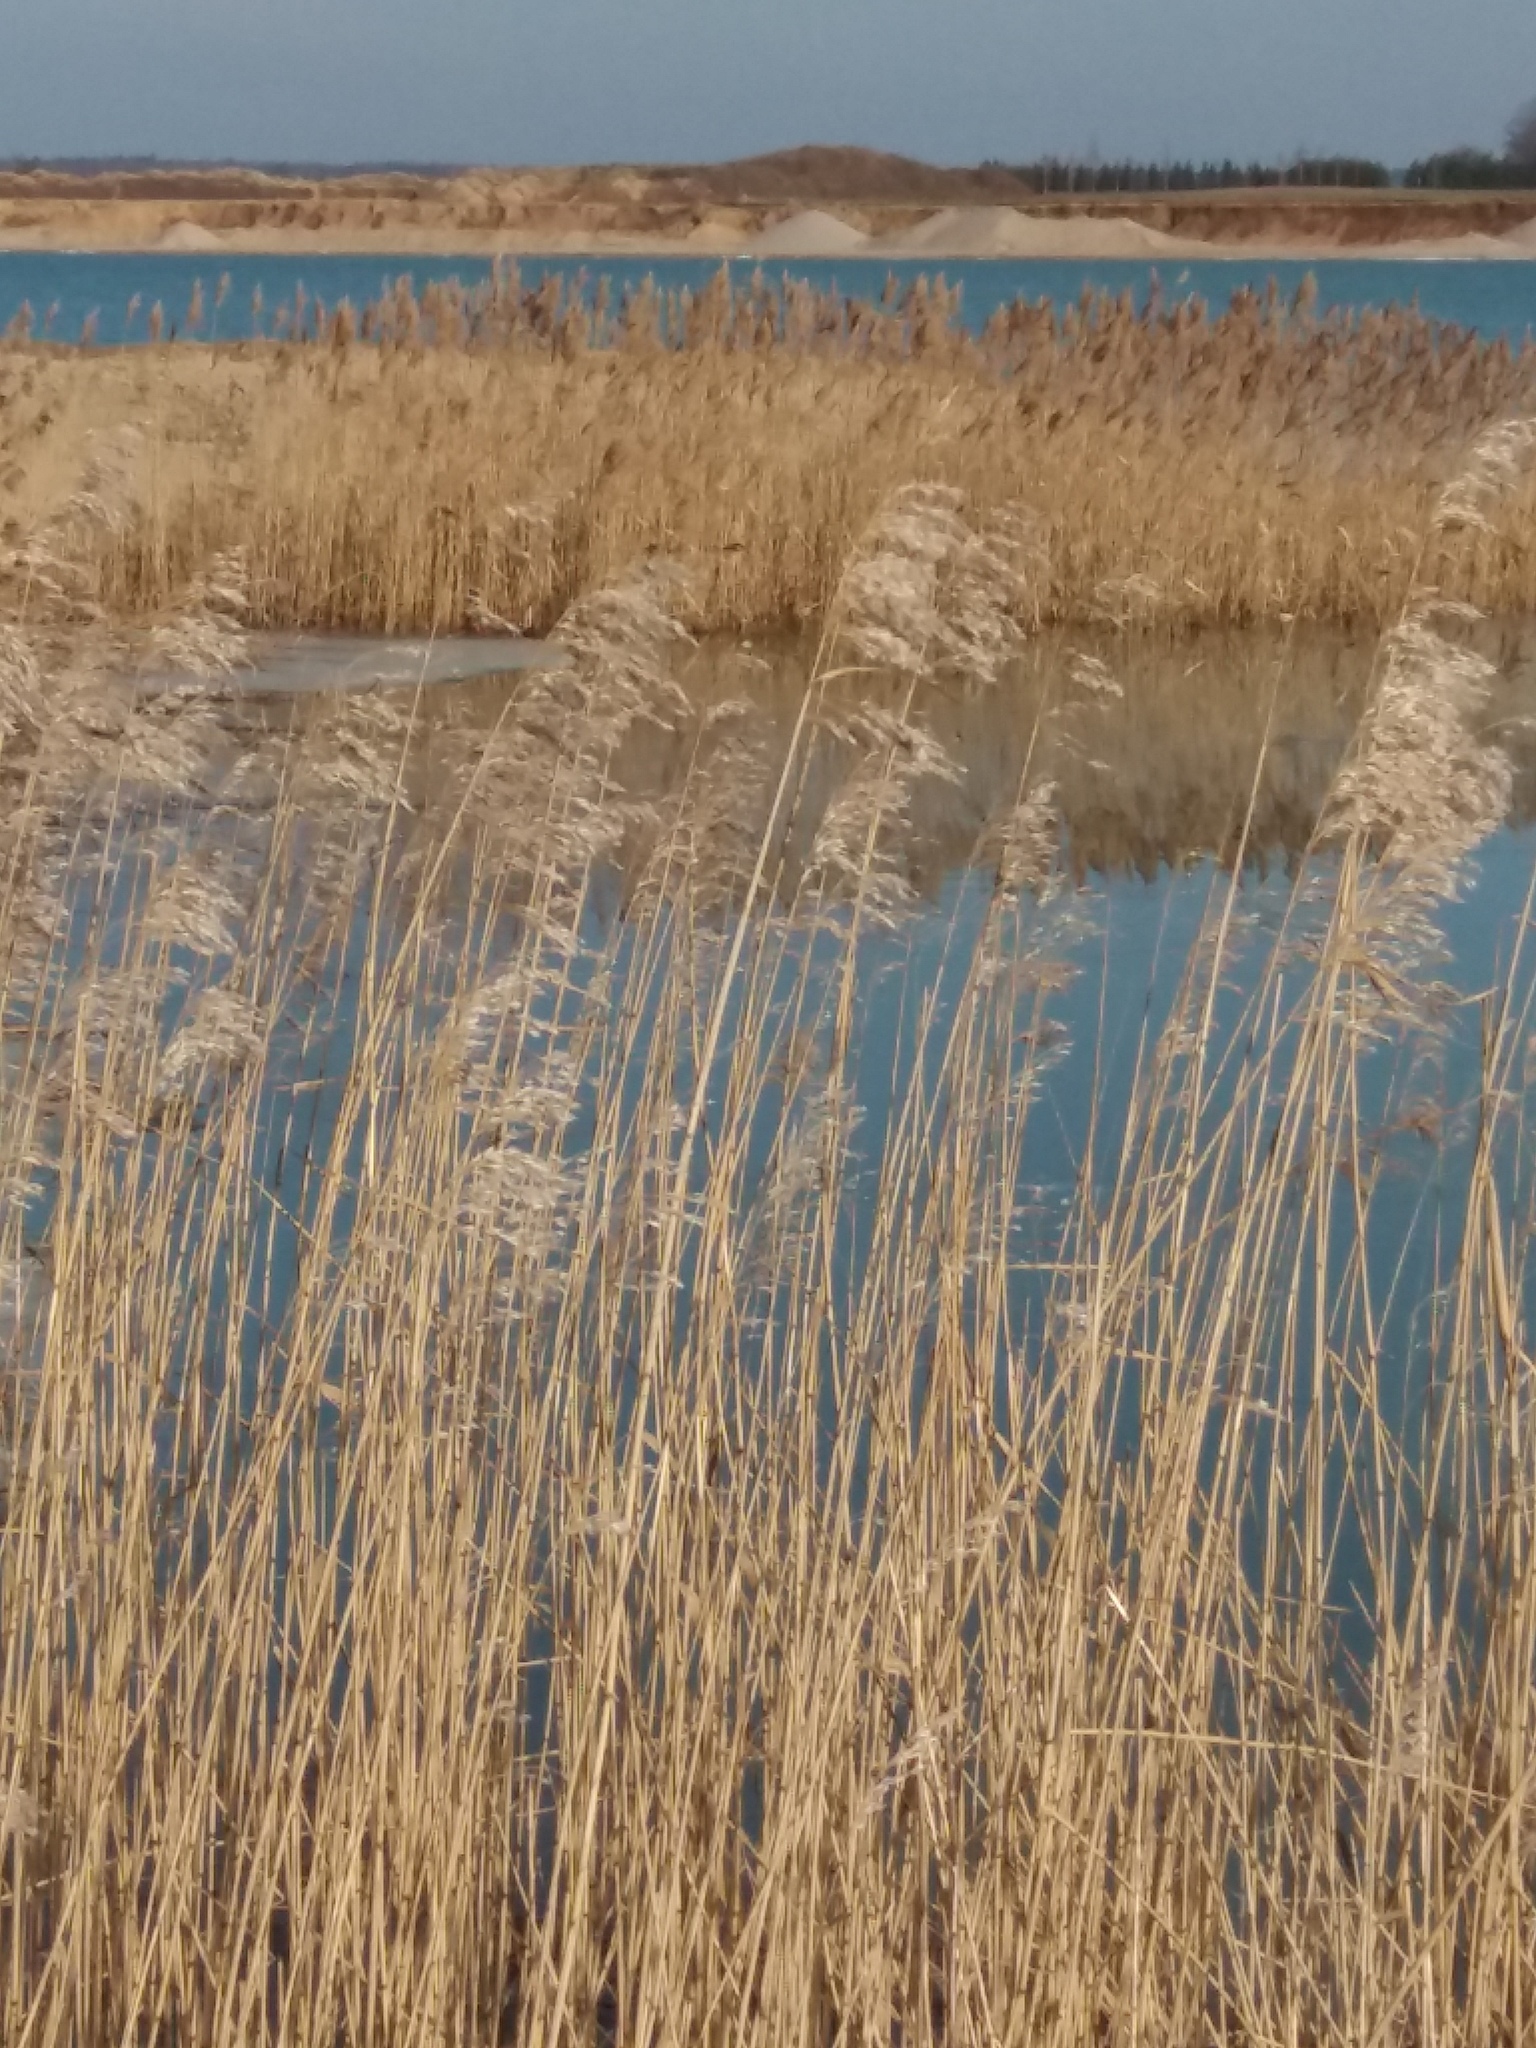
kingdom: Plantae
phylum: Tracheophyta
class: Liliopsida
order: Poales
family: Poaceae
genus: Phragmites
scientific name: Phragmites australis
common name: Common reed
